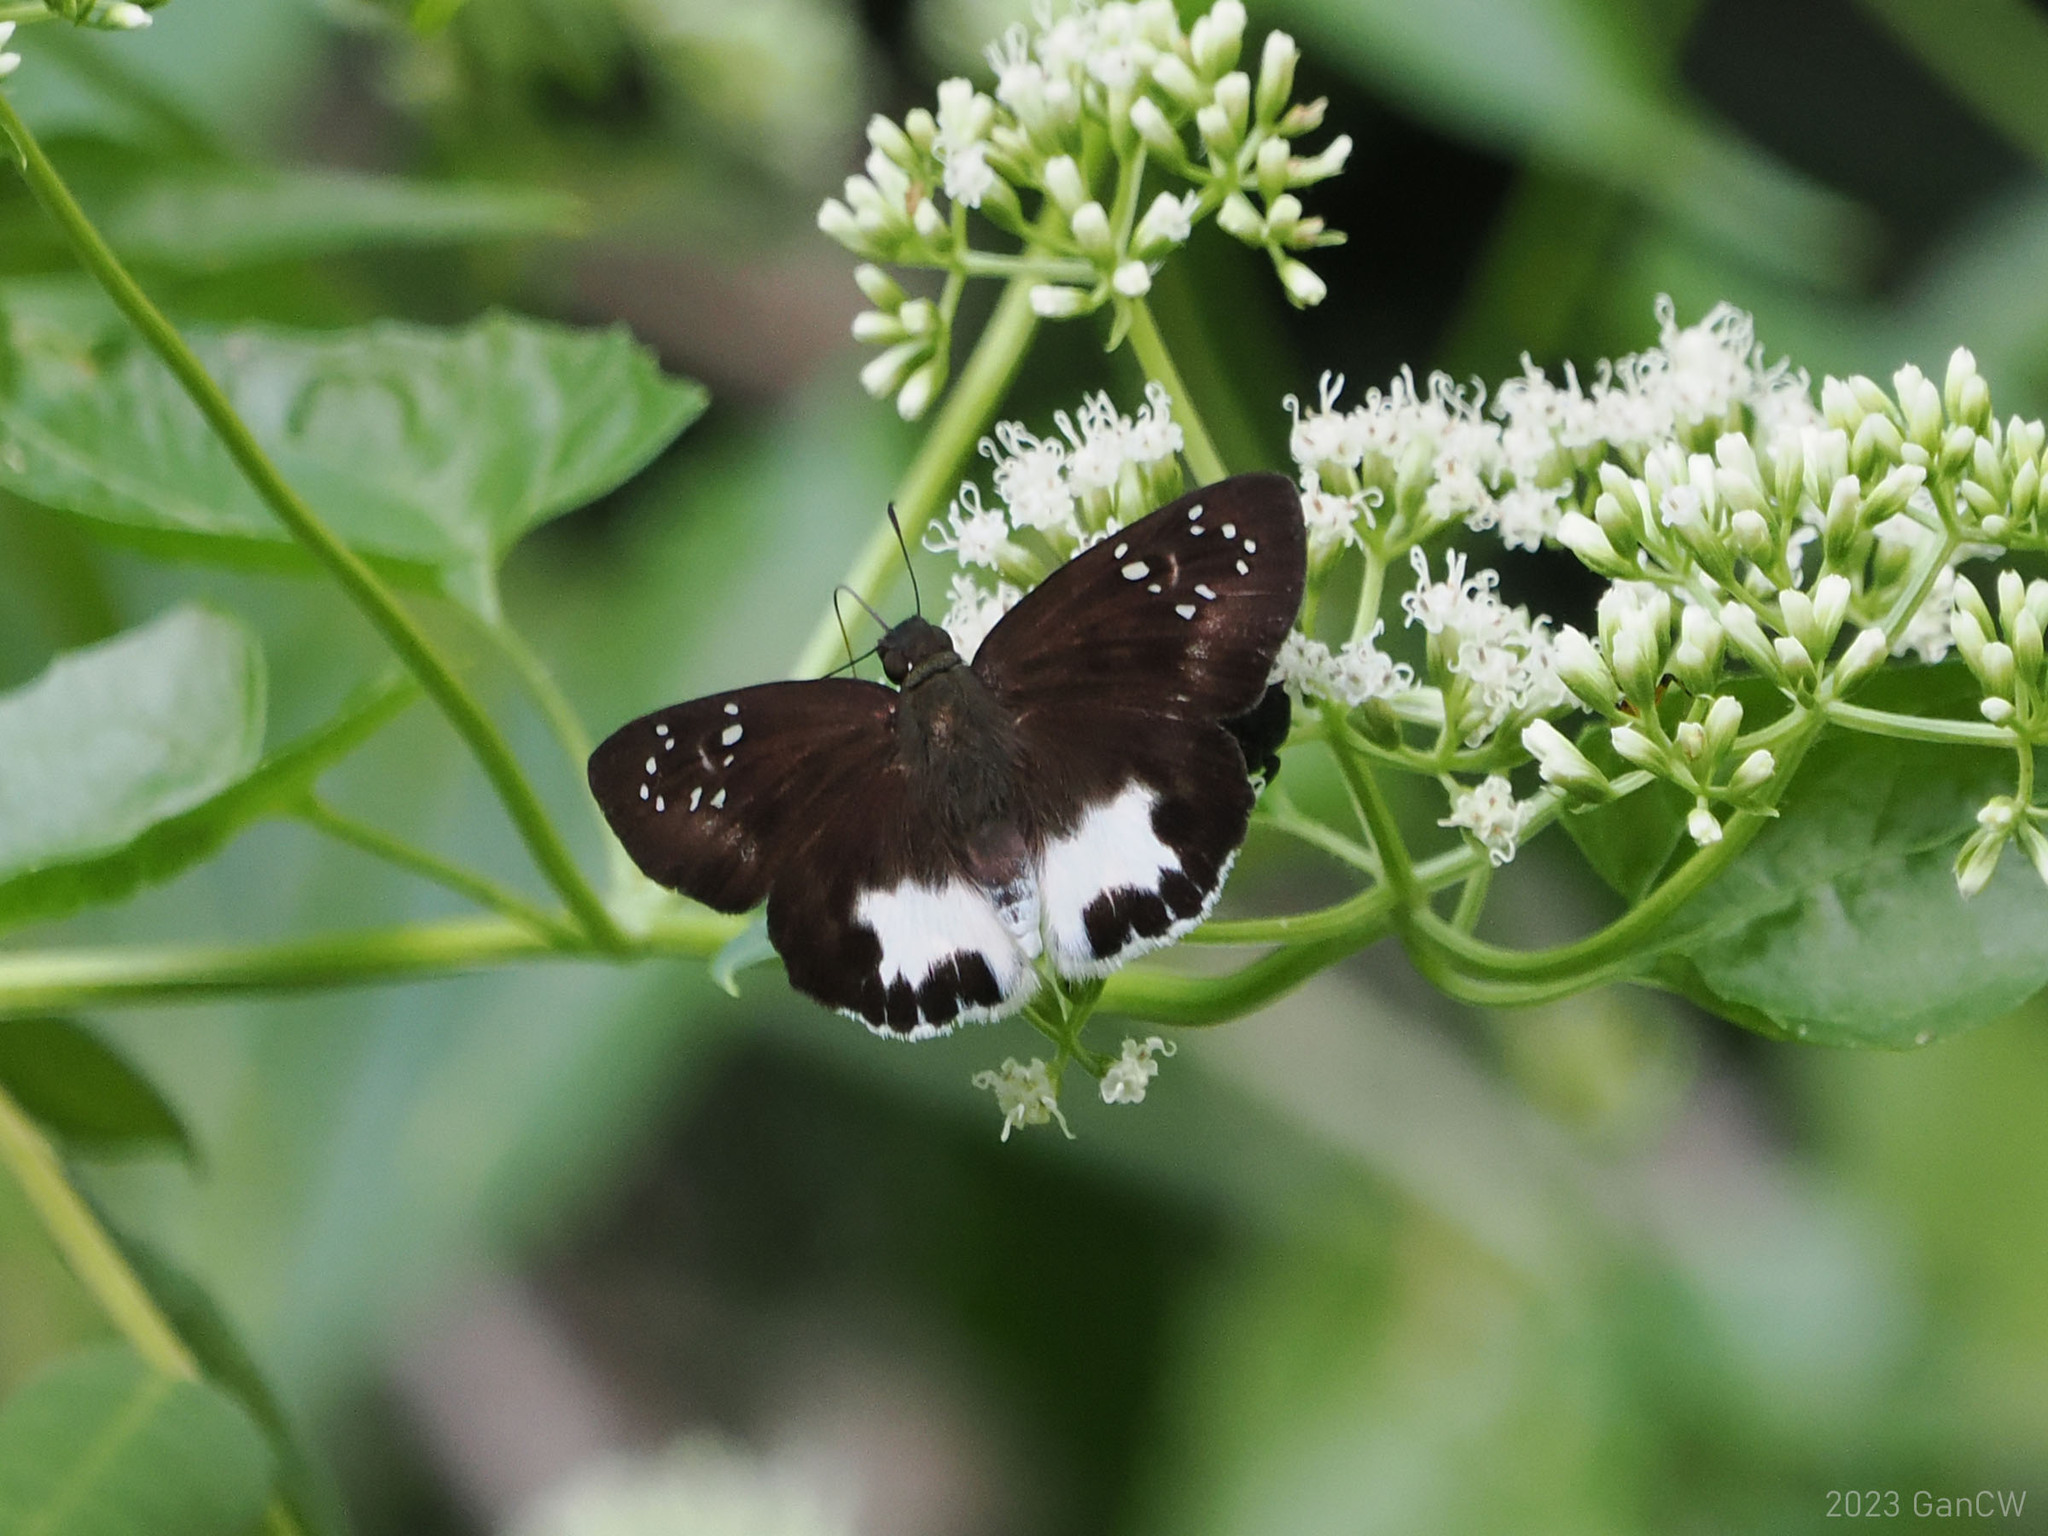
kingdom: Animalia
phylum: Arthropoda
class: Insecta
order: Lepidoptera
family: Hesperiidae
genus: Tagiades
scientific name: Tagiades trebellius
